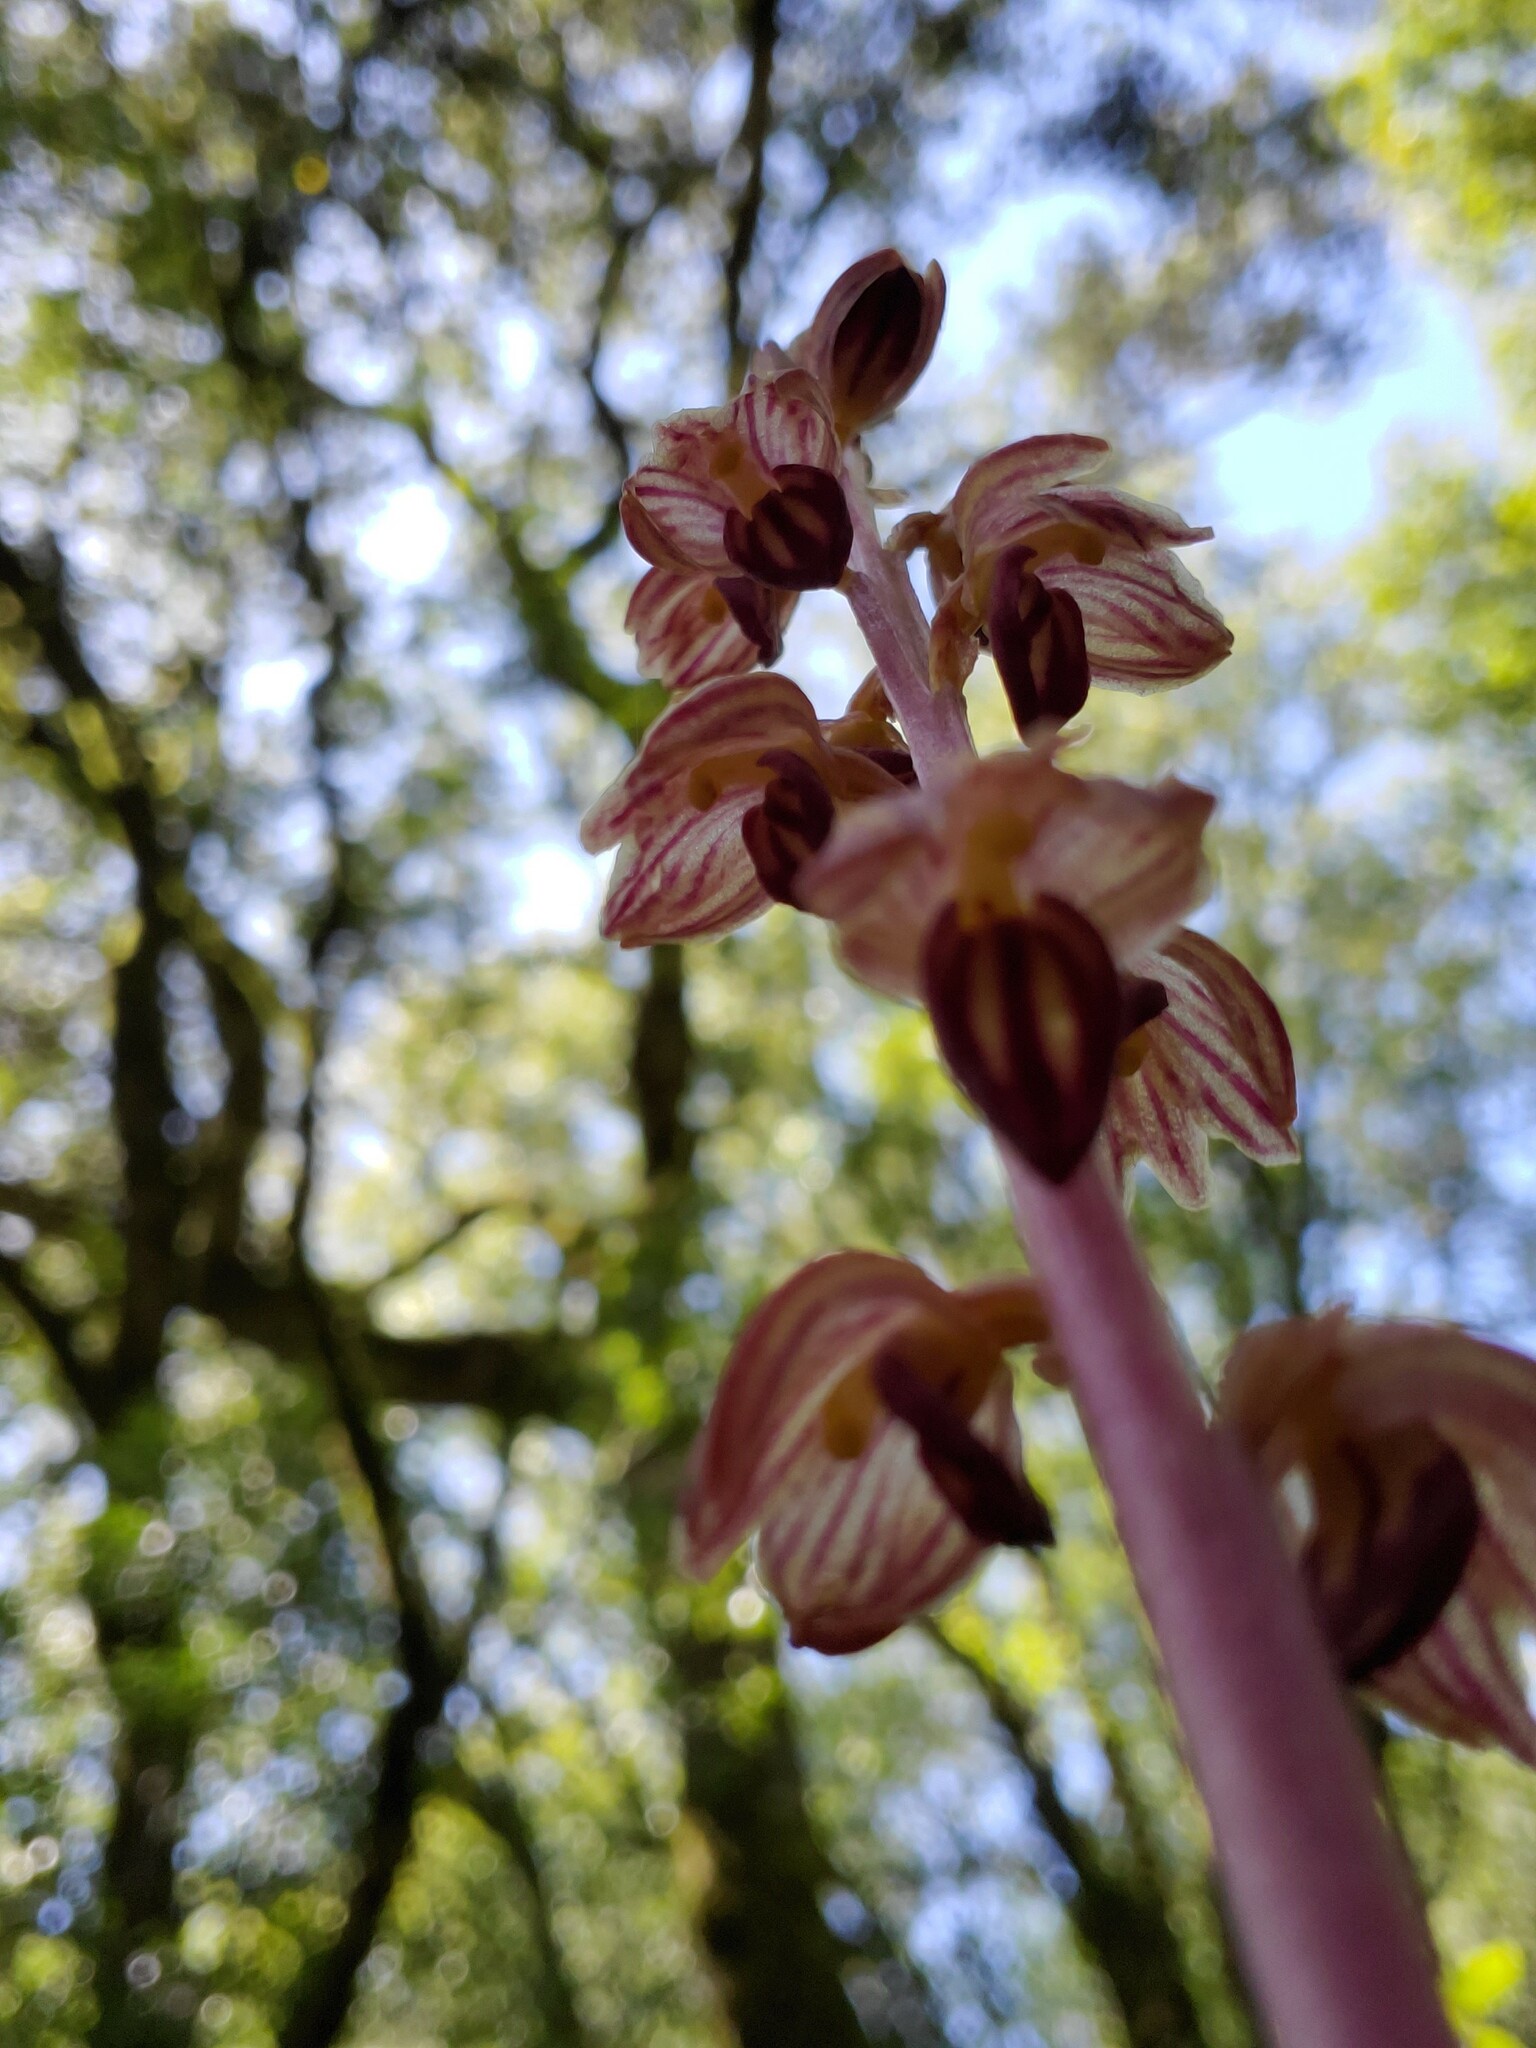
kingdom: Plantae
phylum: Tracheophyta
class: Liliopsida
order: Asparagales
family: Orchidaceae
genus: Corallorhiza
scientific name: Corallorhiza striata
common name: Hooded coralroot
